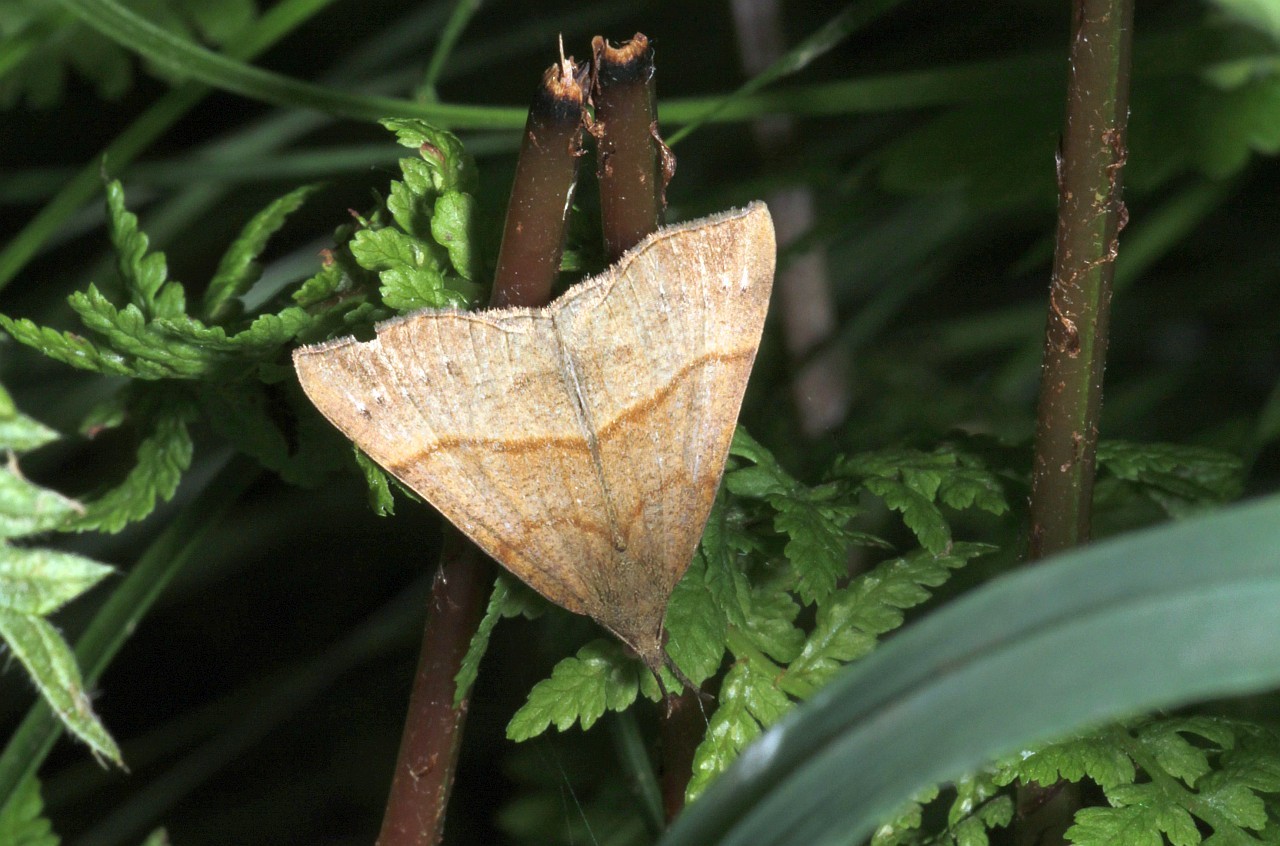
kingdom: Animalia
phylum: Arthropoda
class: Insecta
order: Lepidoptera
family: Erebidae
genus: Hypena
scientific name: Hypena proboscidalis
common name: Snout
